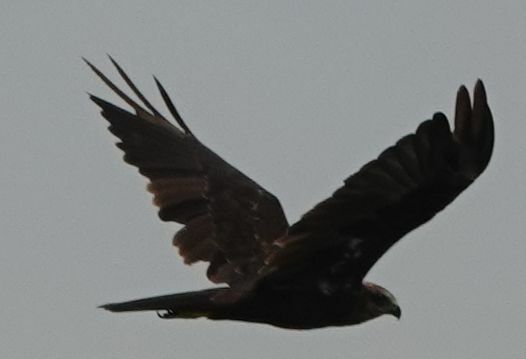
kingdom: Animalia
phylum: Chordata
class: Aves
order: Accipitriformes
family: Accipitridae
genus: Milvus
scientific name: Milvus migrans
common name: Black kite
